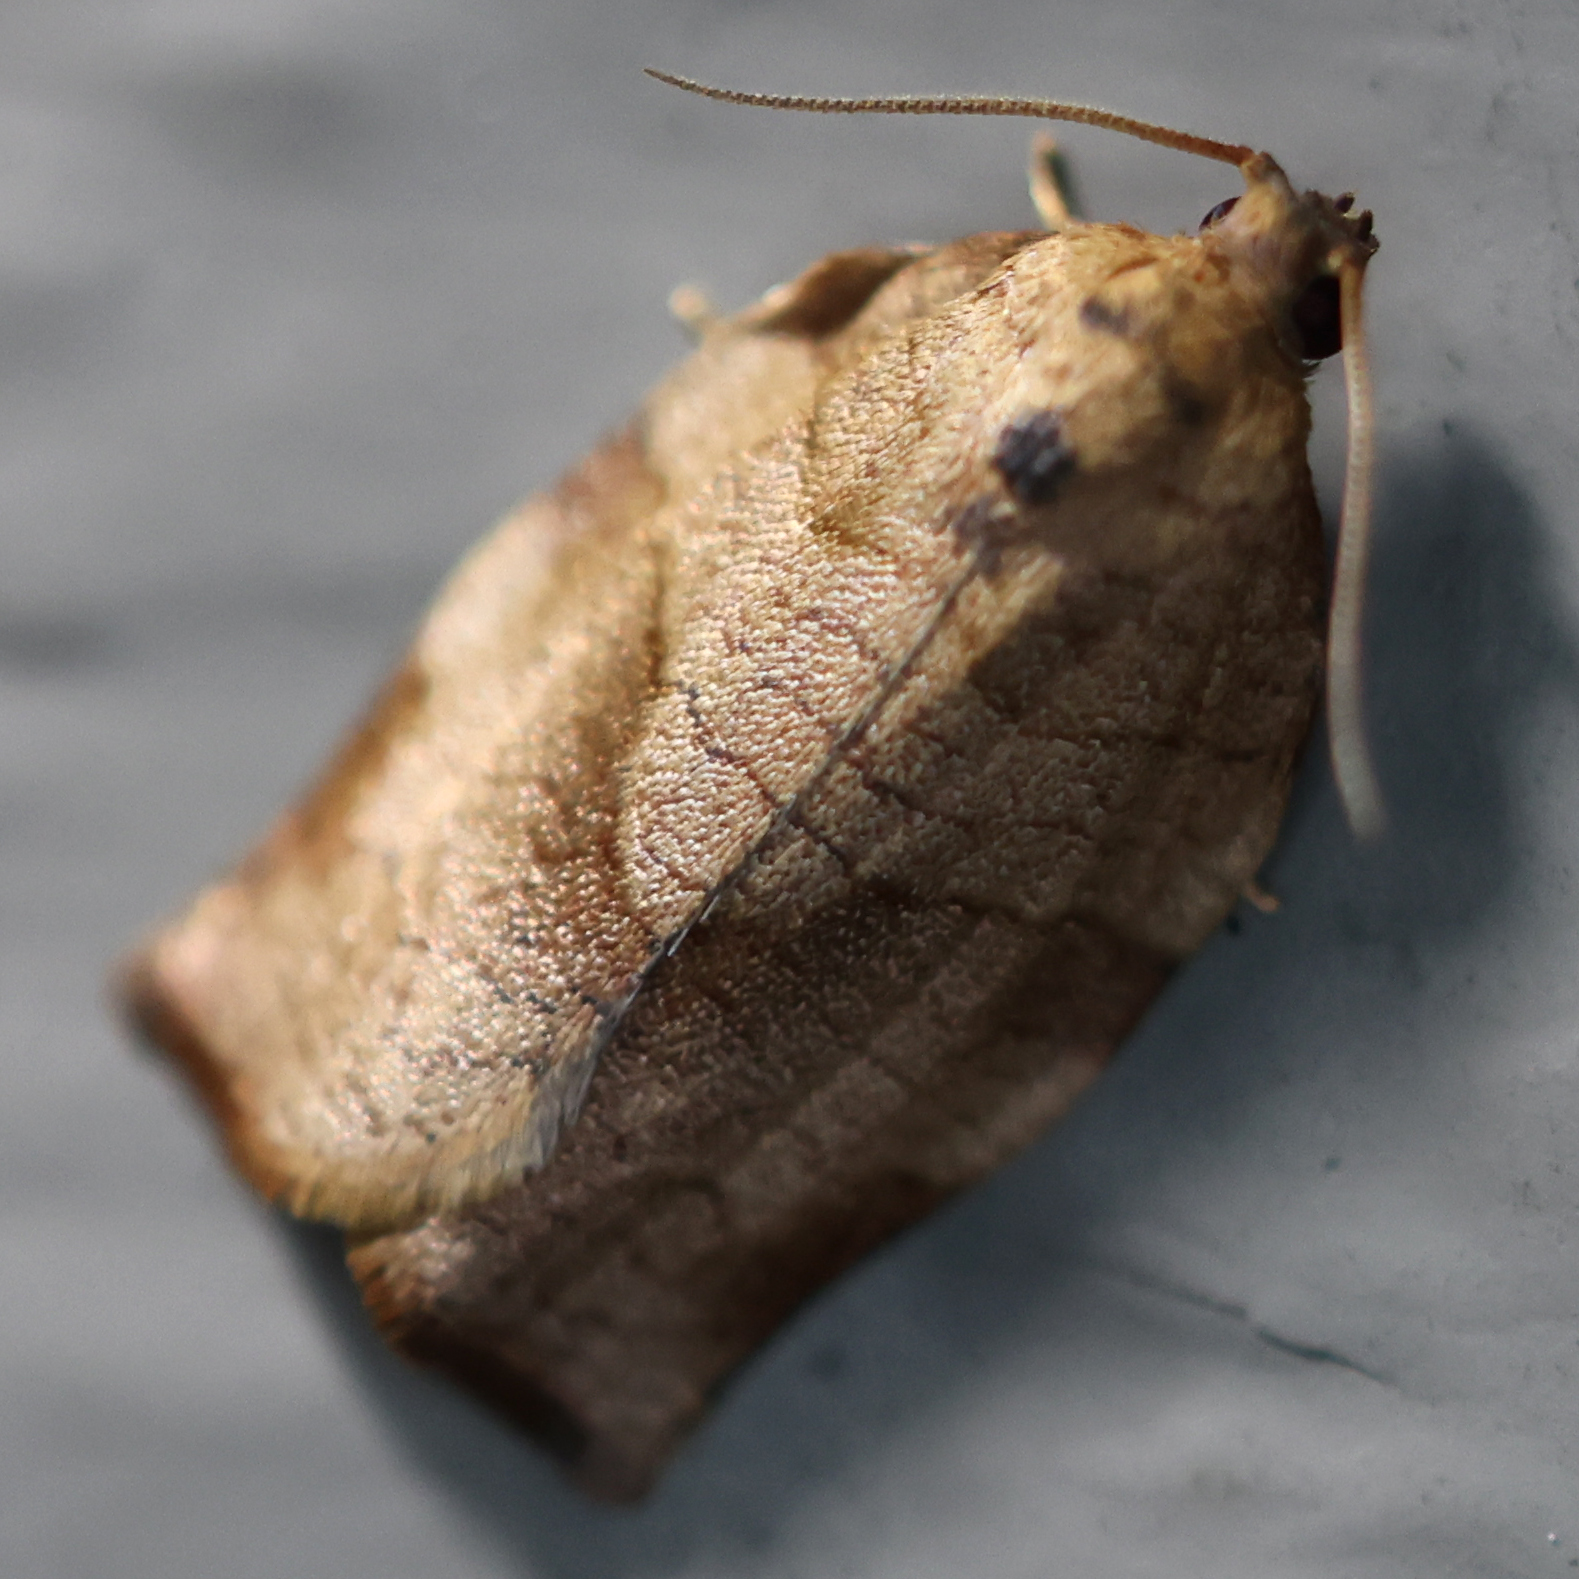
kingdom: Animalia
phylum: Arthropoda
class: Insecta
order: Lepidoptera
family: Tortricidae
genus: Choristoneura
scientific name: Choristoneura rosaceana
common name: Oblique-banded leafroller moth
